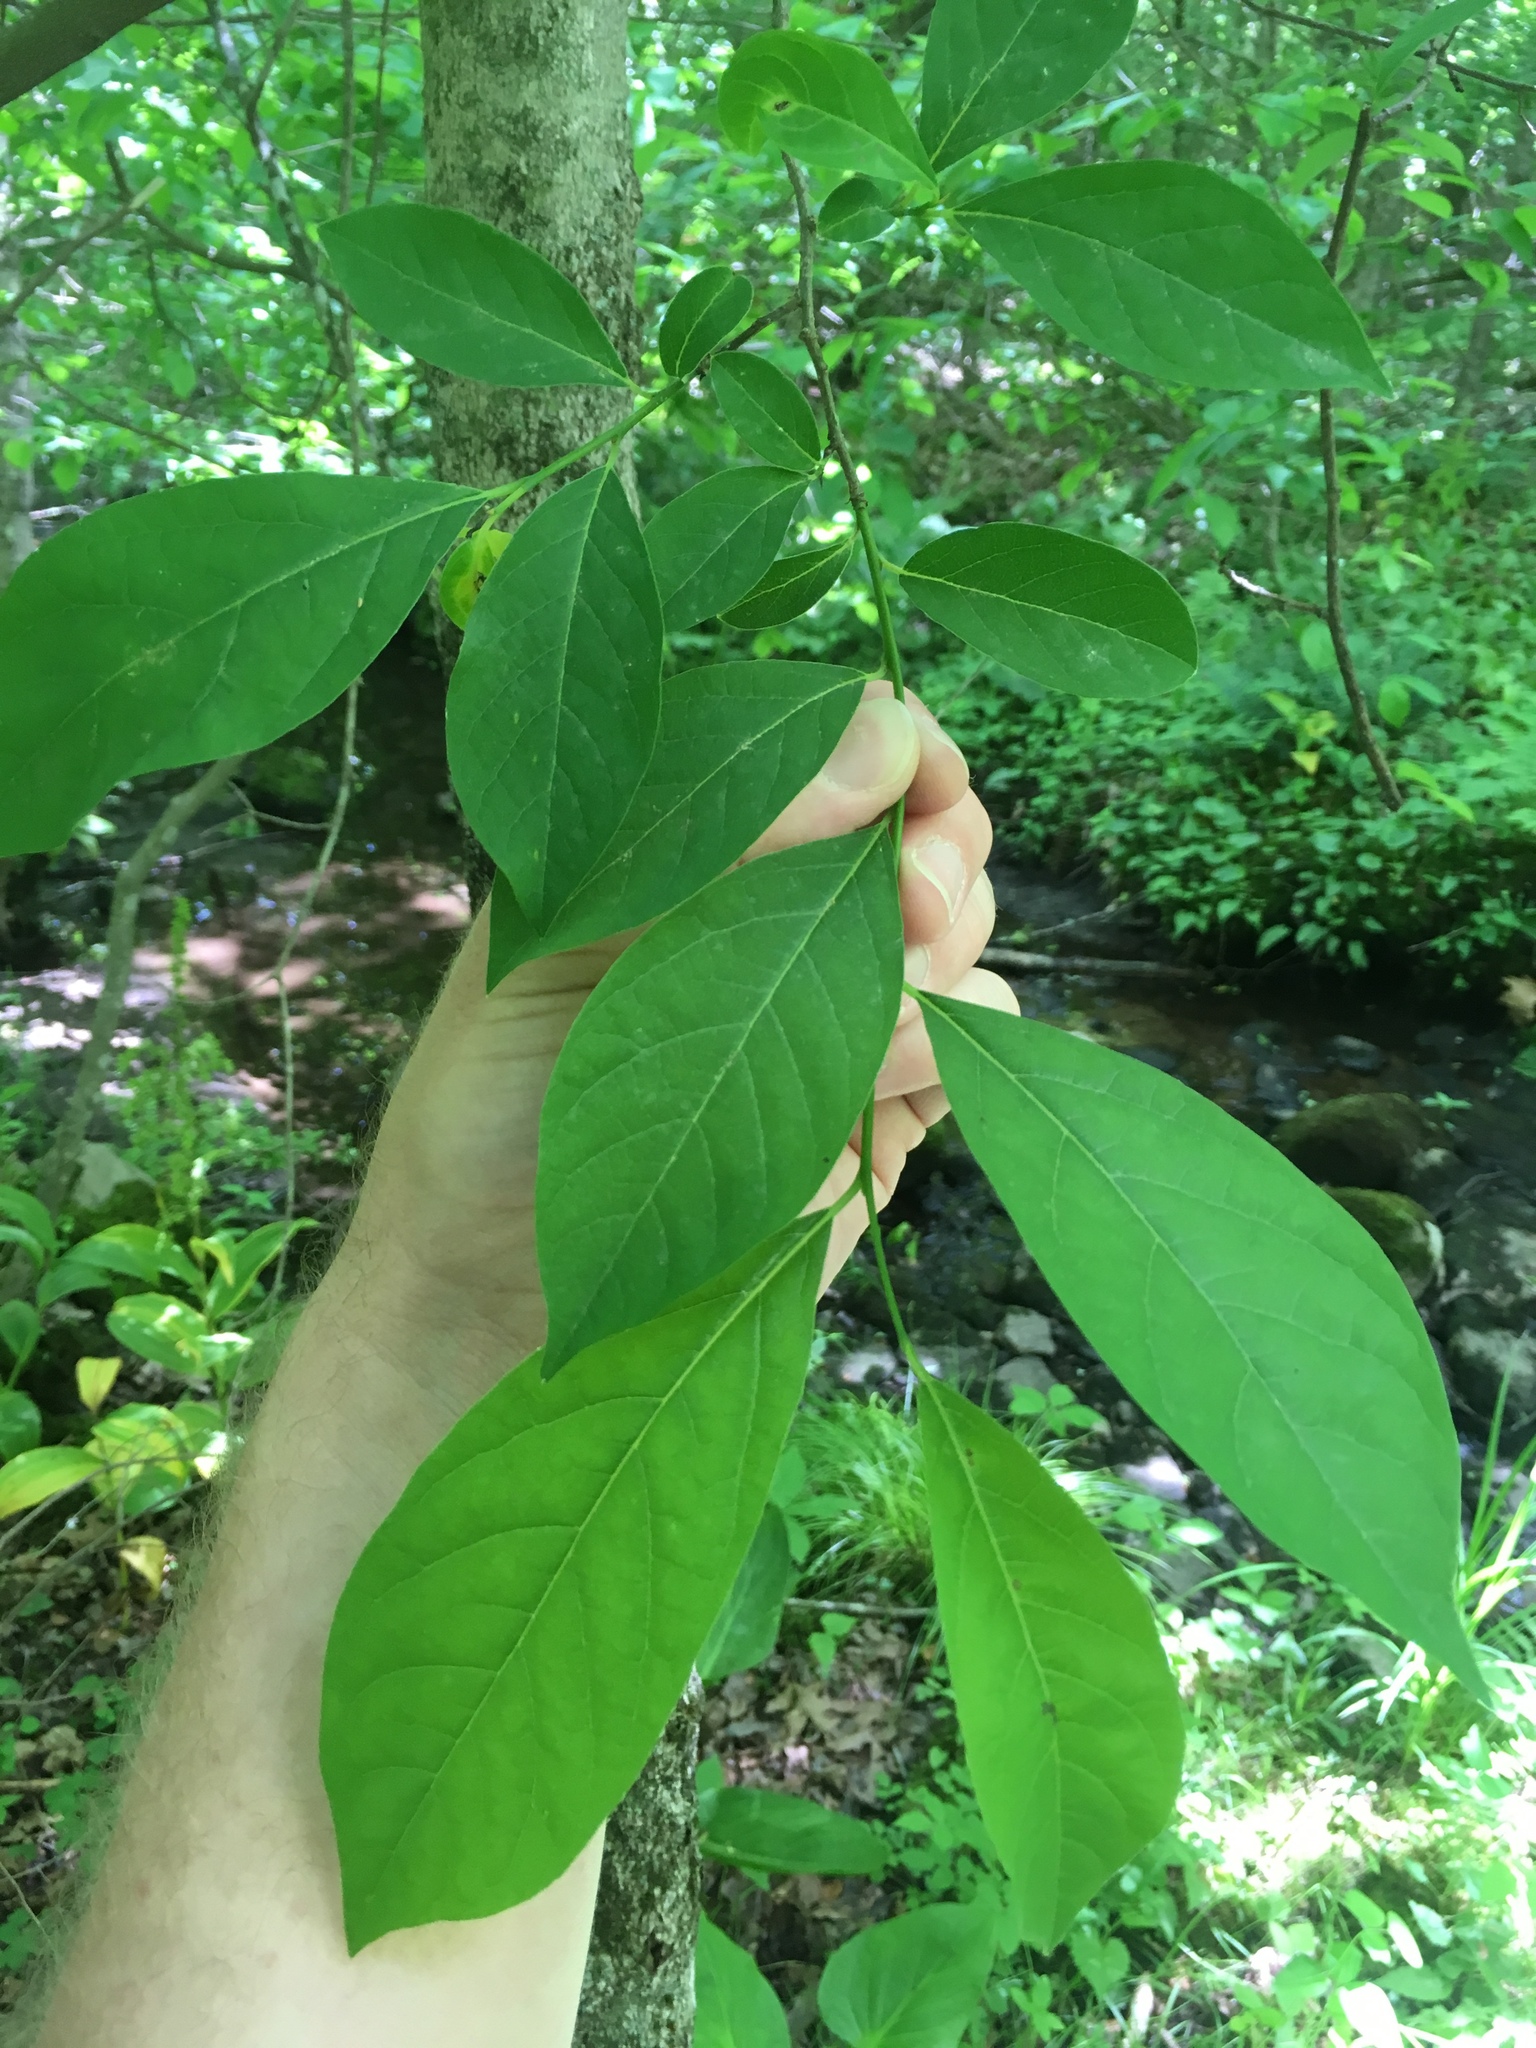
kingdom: Plantae
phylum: Tracheophyta
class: Magnoliopsida
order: Laurales
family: Lauraceae
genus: Lindera
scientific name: Lindera benzoin
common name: Spicebush
